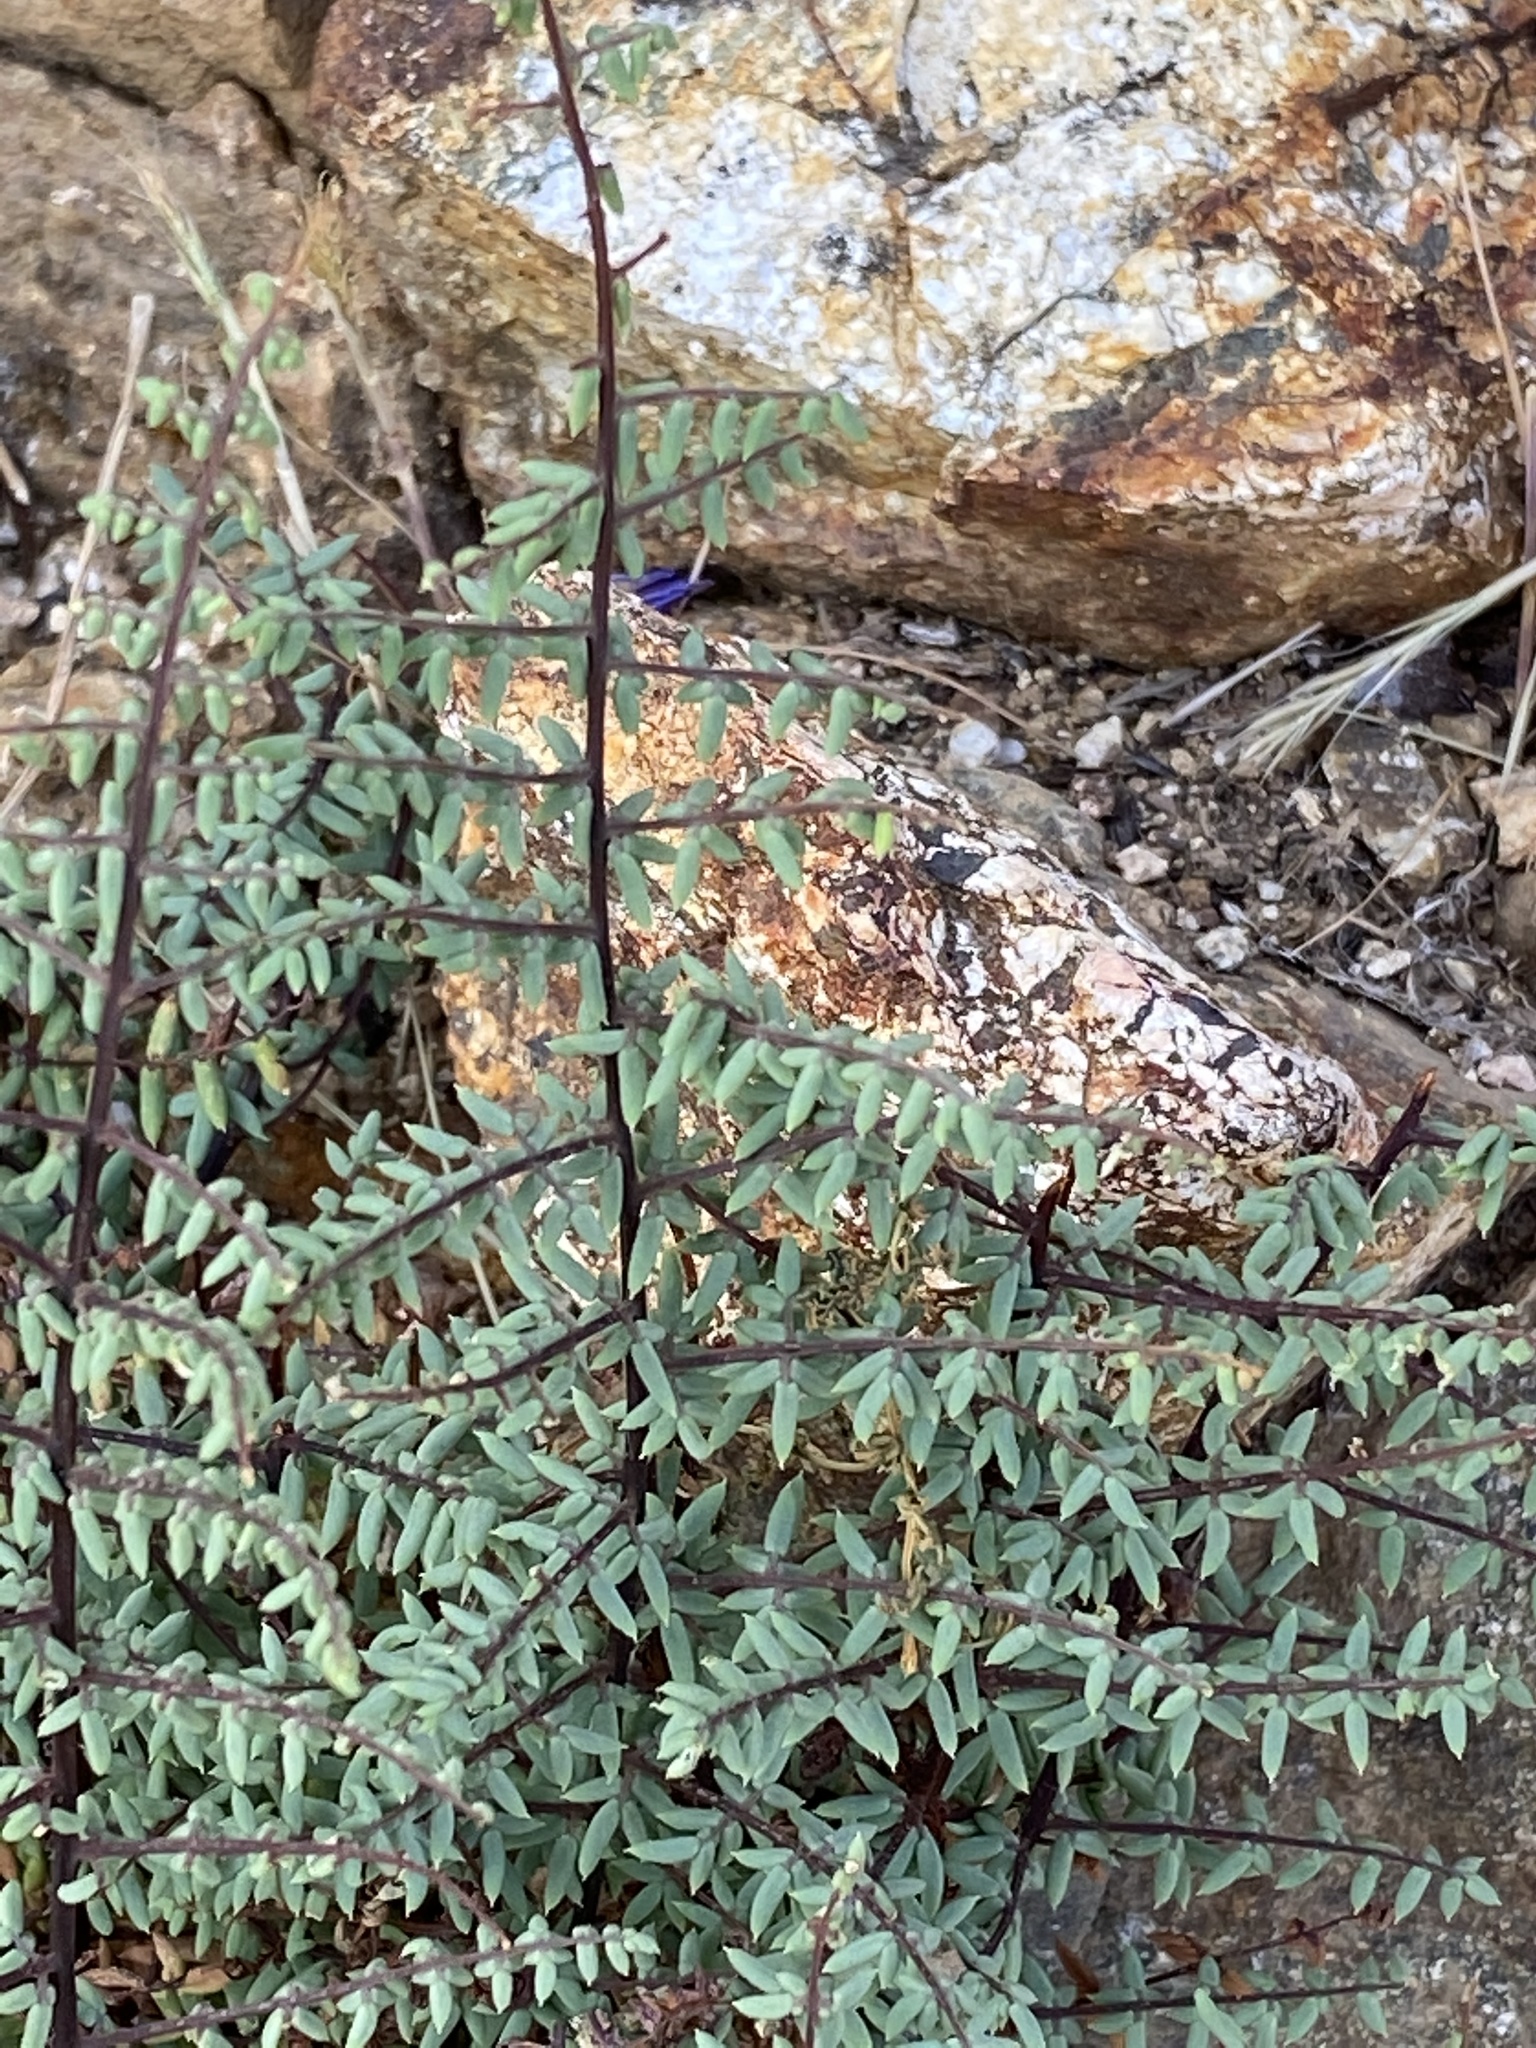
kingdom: Plantae
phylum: Tracheophyta
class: Polypodiopsida
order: Polypodiales
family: Pteridaceae
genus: Pellaea
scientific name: Pellaea mucronata
